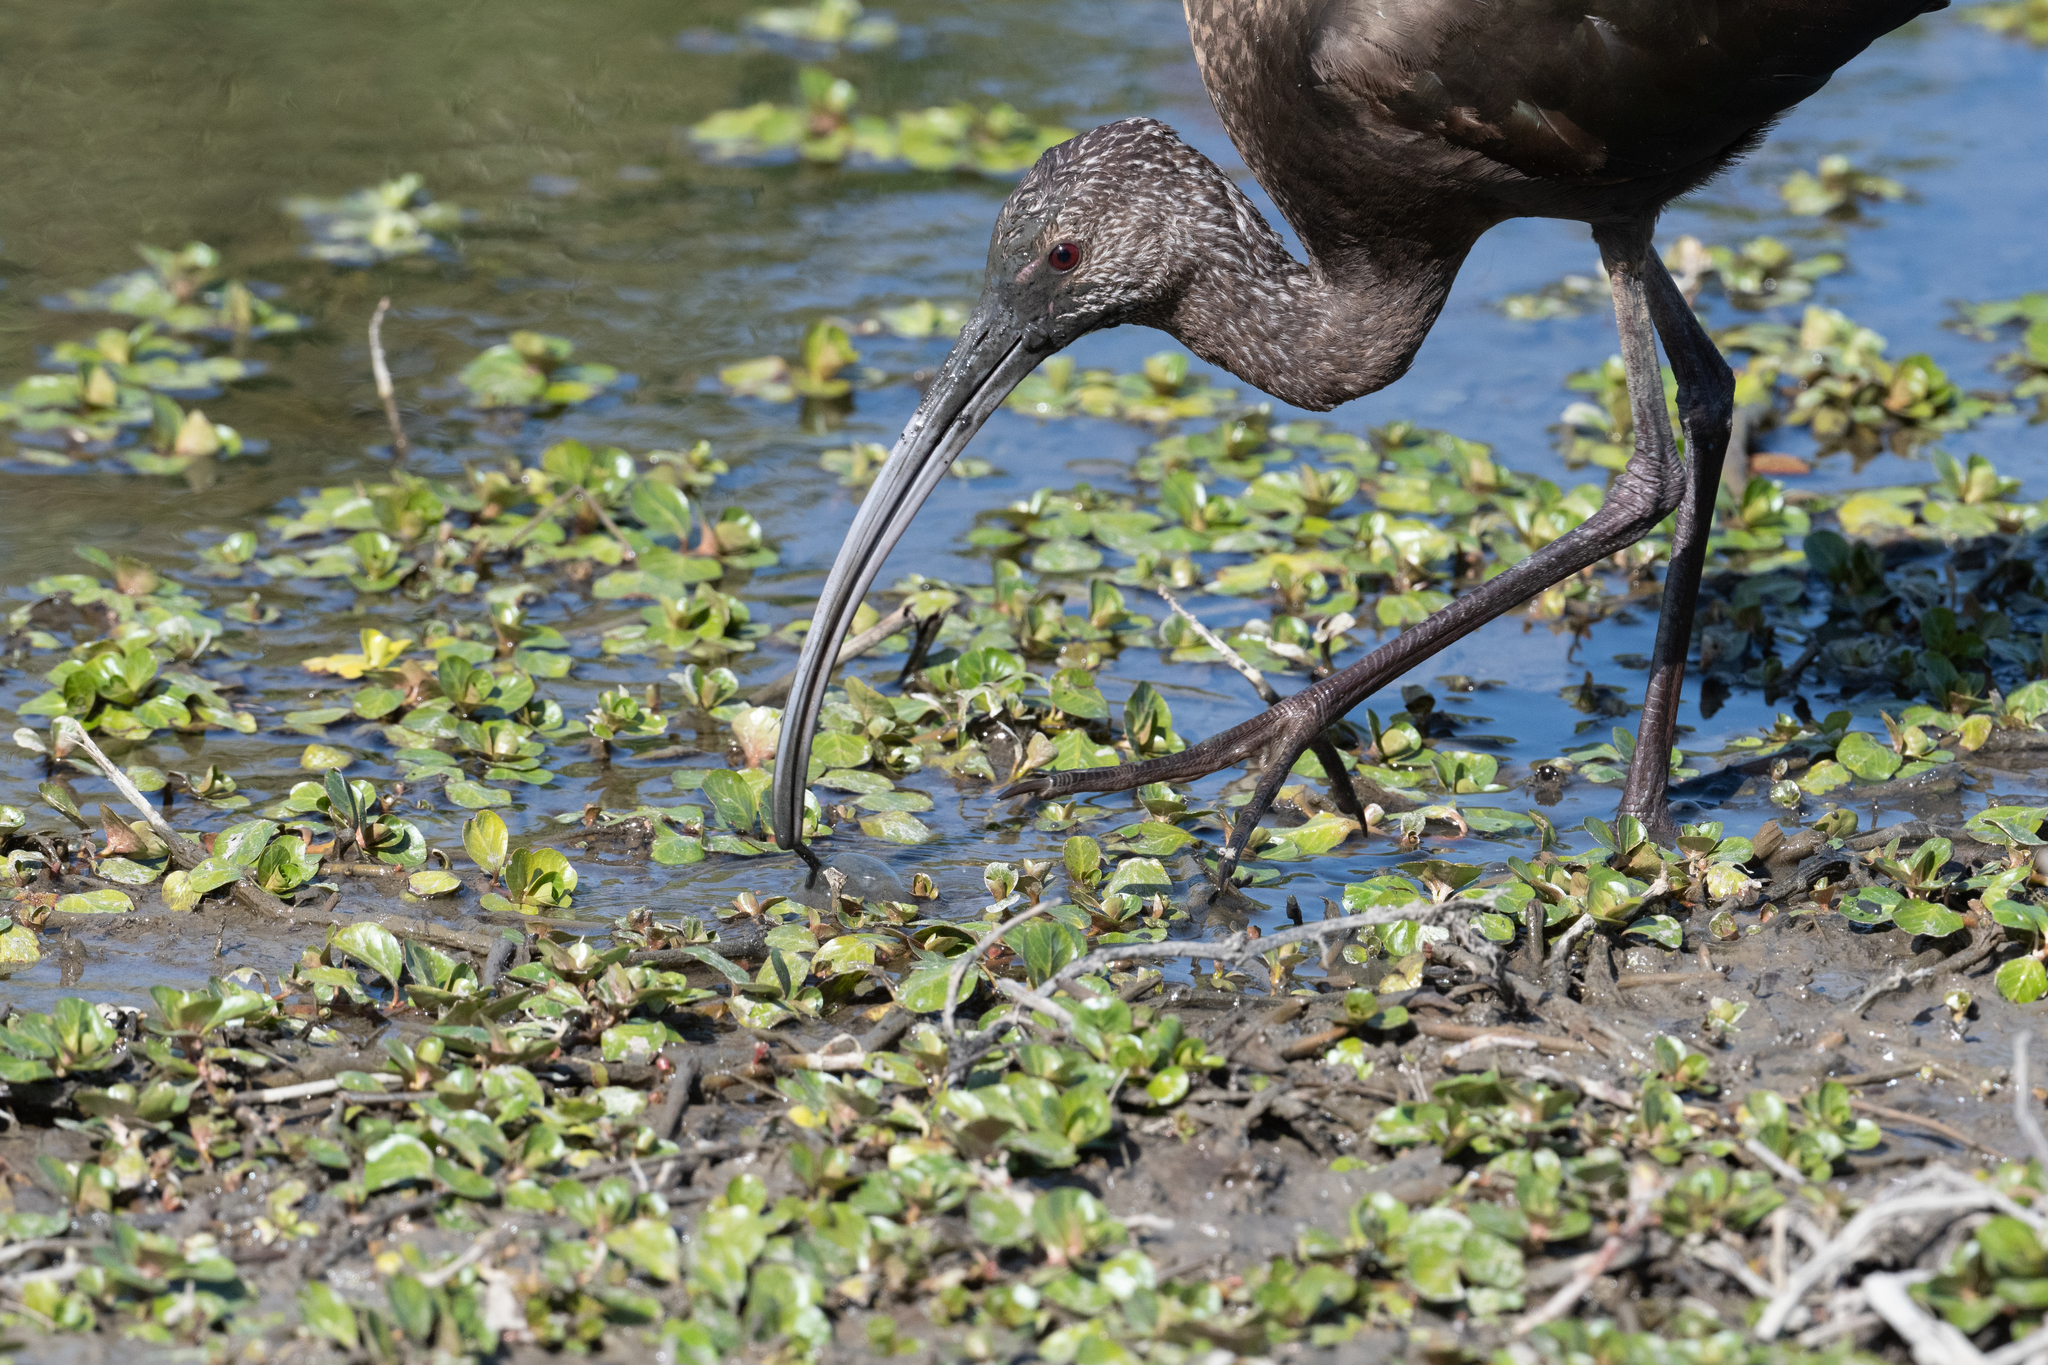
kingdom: Animalia
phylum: Chordata
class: Aves
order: Pelecaniformes
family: Threskiornithidae
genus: Plegadis
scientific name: Plegadis chihi
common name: White-faced ibis
